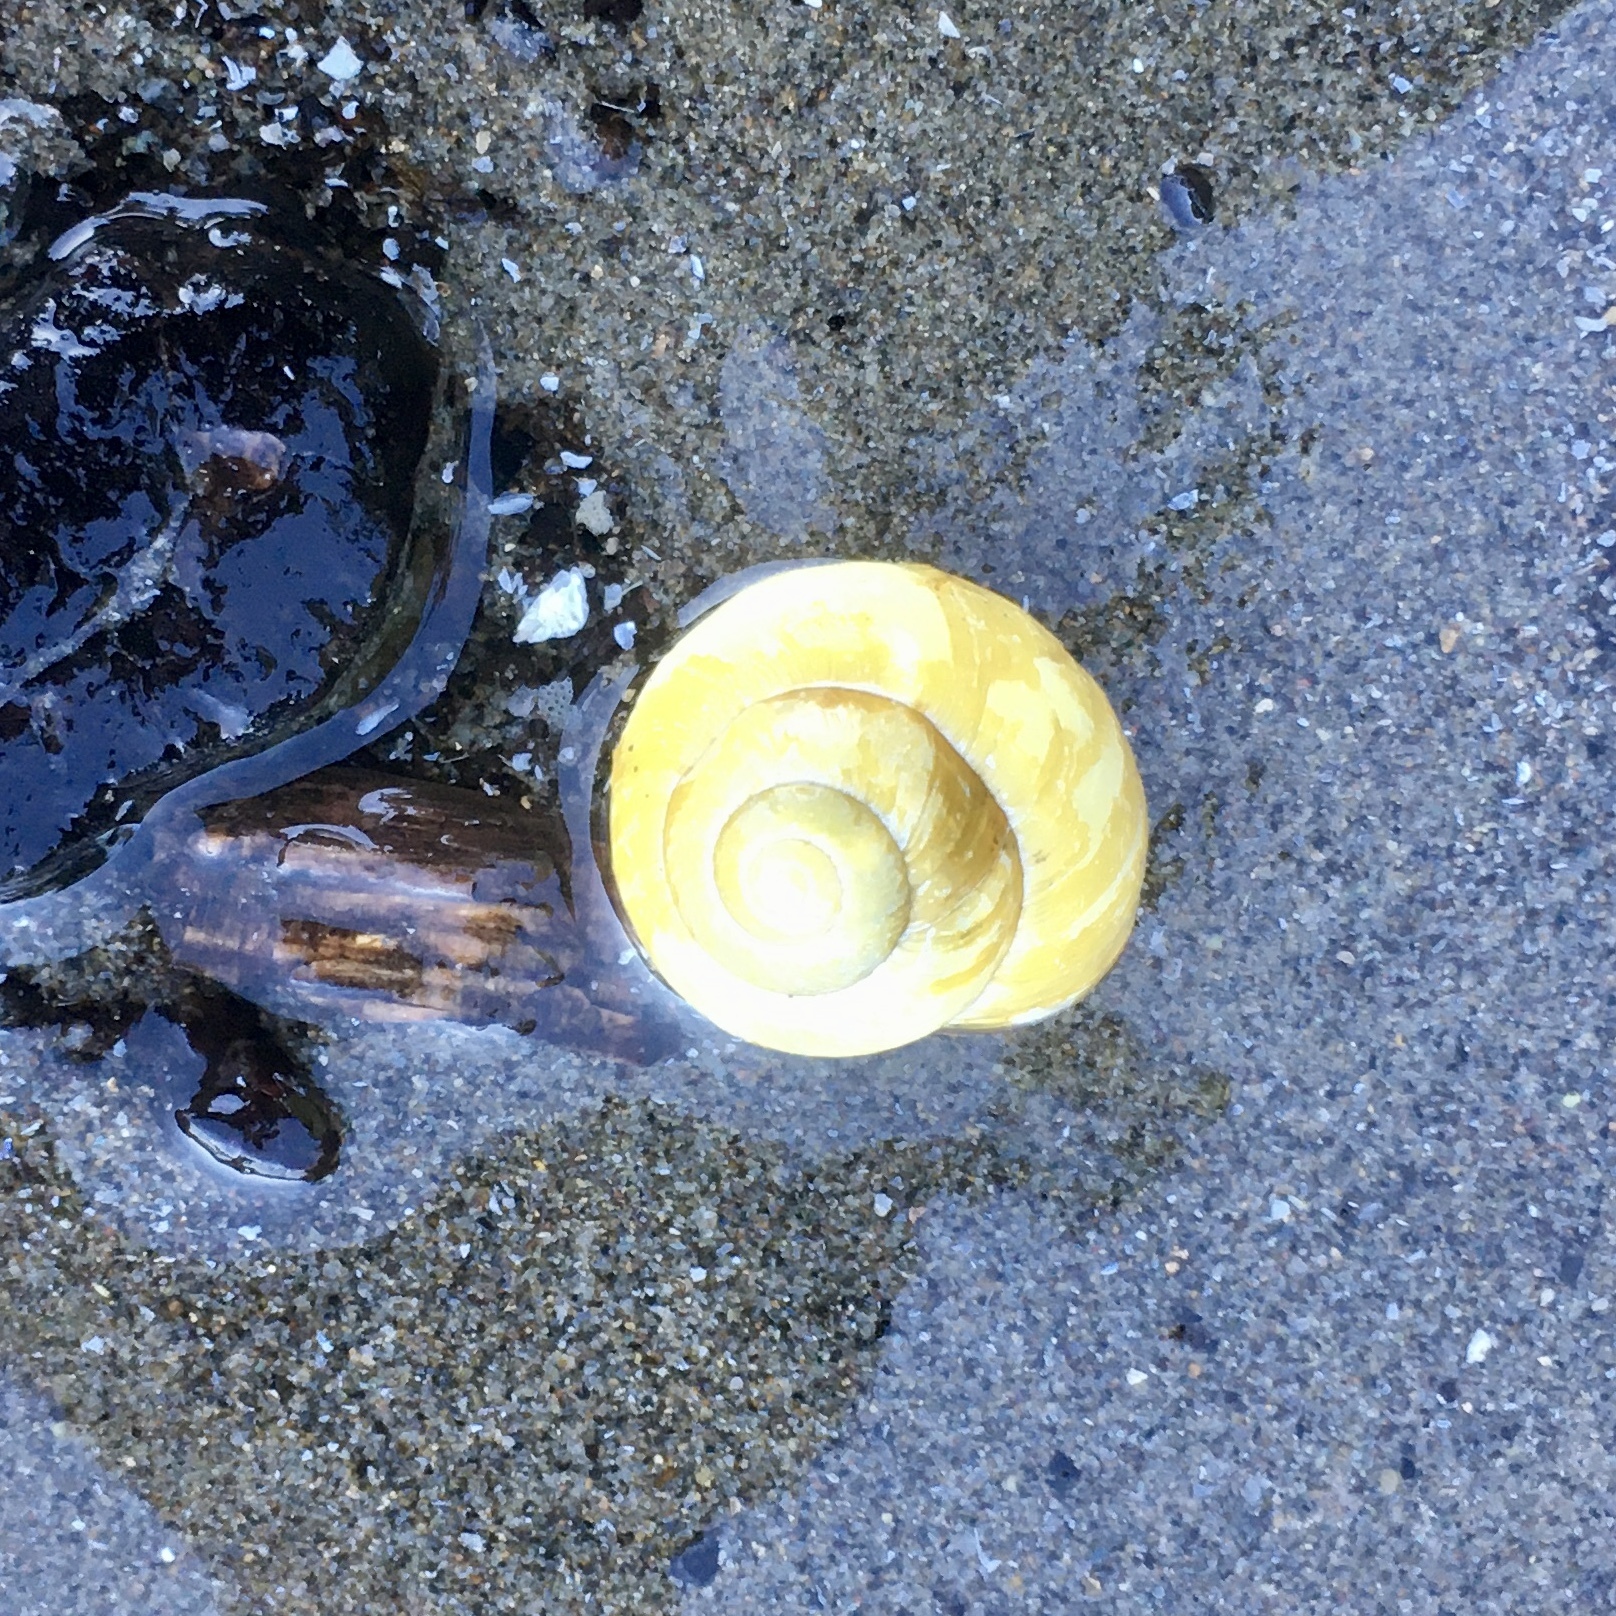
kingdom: Animalia
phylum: Mollusca
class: Gastropoda
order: Stylommatophora
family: Helicidae
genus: Cepaea
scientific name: Cepaea nemoralis
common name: Grovesnail
